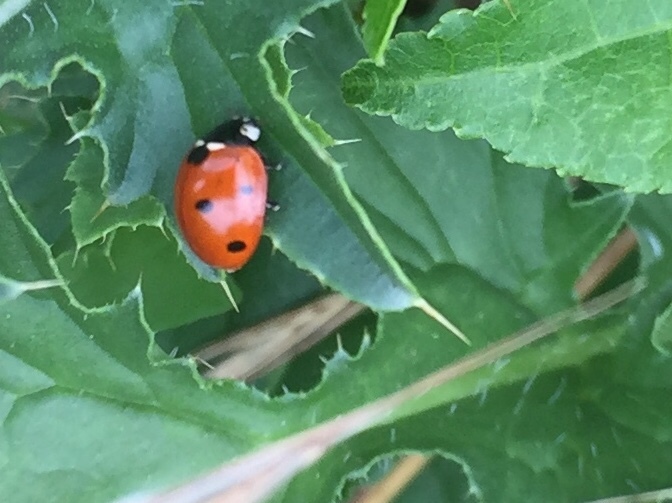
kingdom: Animalia
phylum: Arthropoda
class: Insecta
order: Coleoptera
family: Coccinellidae
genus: Coccinella
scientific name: Coccinella septempunctata
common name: Sevenspotted lady beetle
